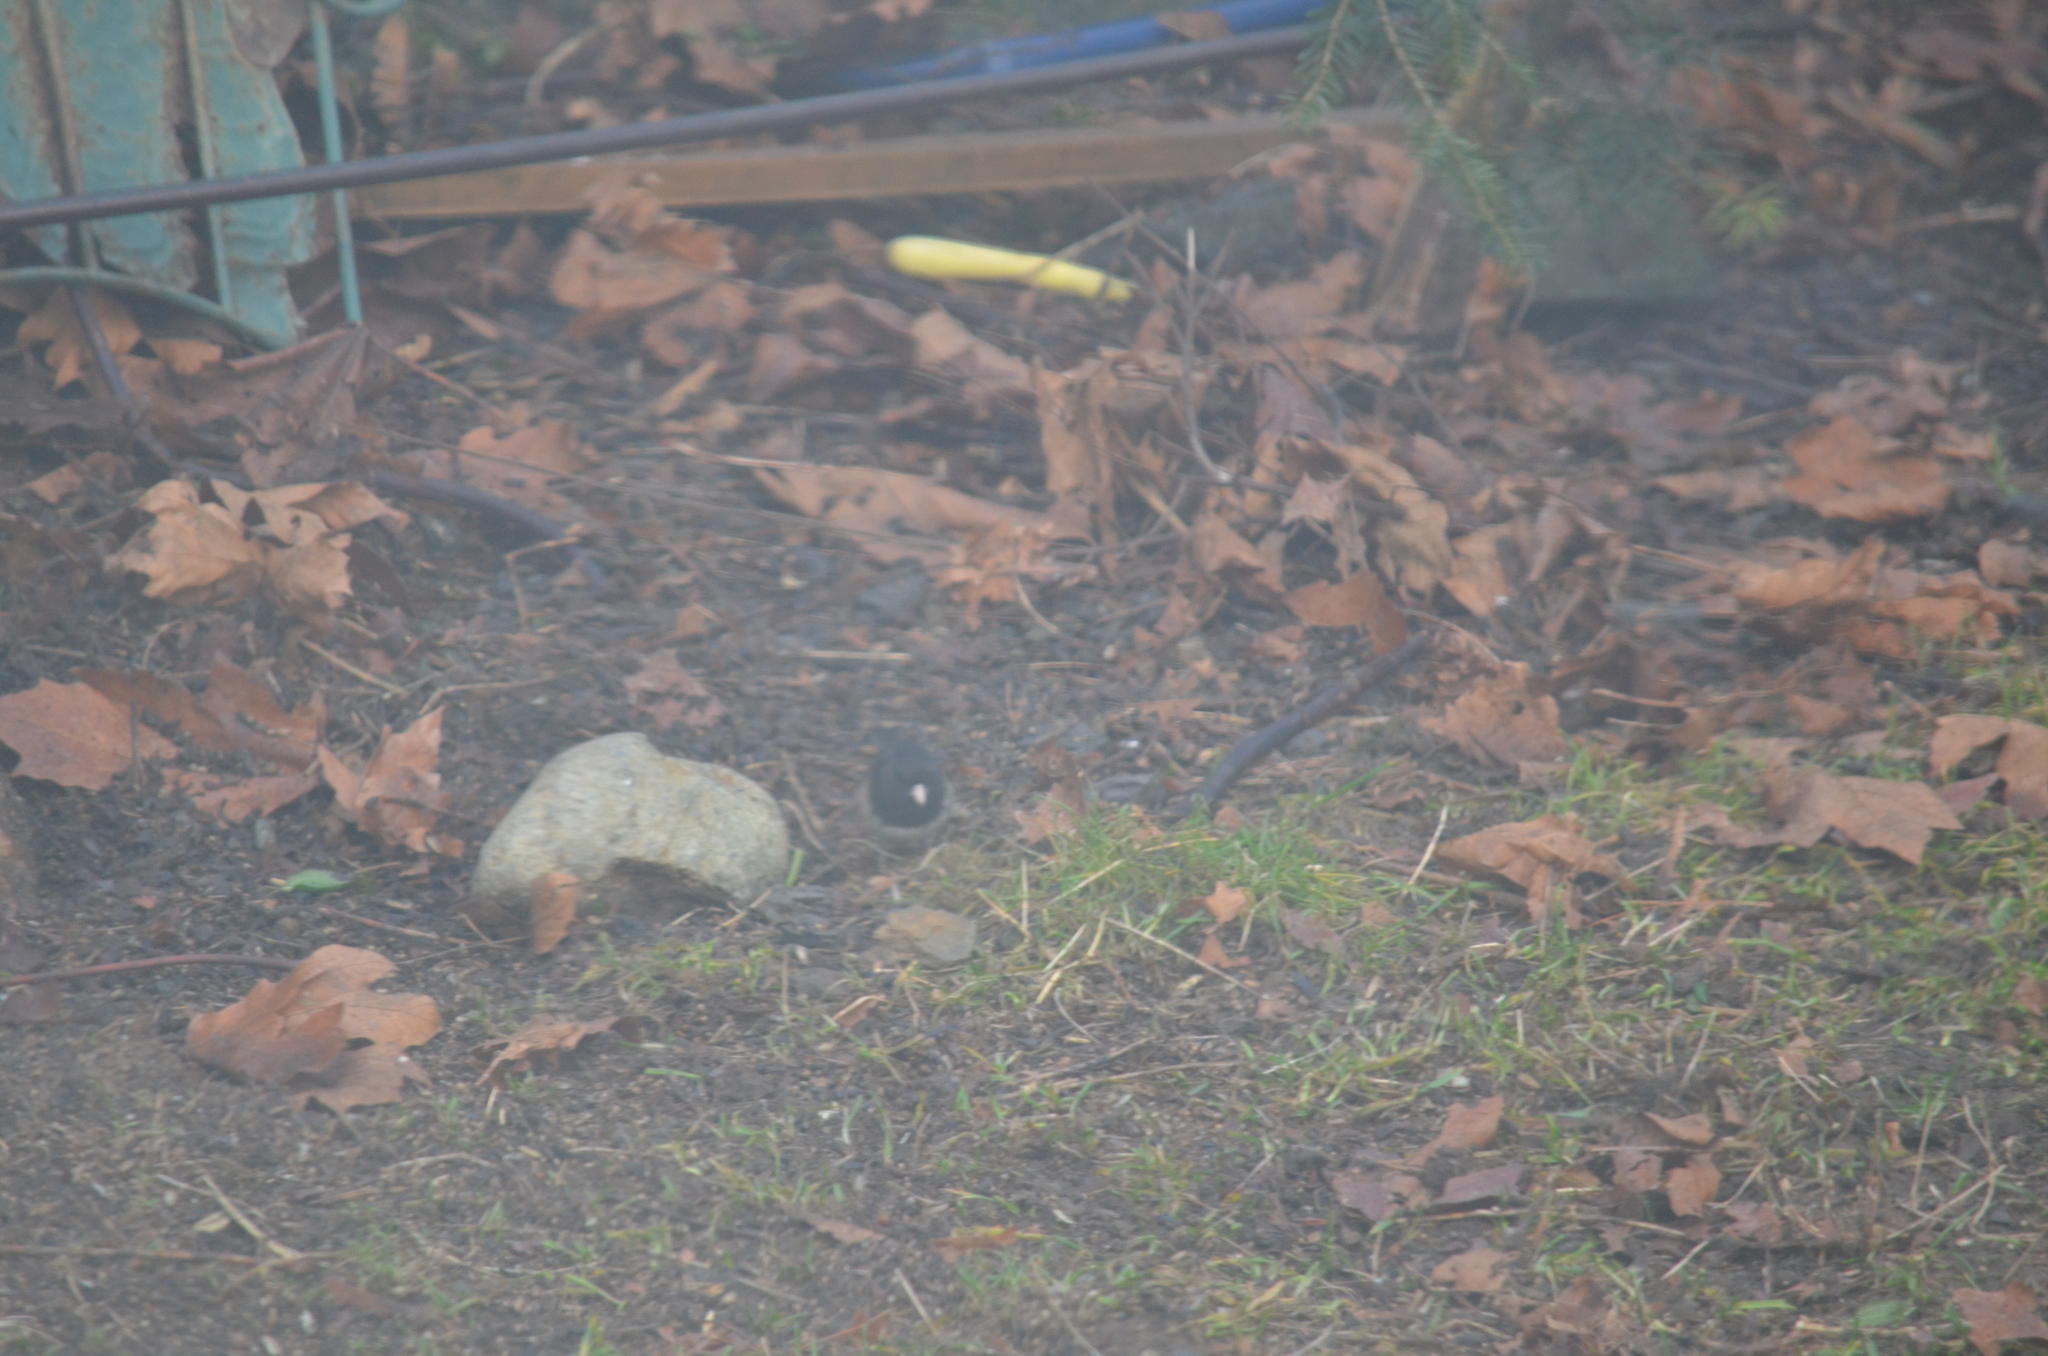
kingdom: Animalia
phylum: Chordata
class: Aves
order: Passeriformes
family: Passerellidae
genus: Junco
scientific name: Junco hyemalis
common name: Dark-eyed junco
